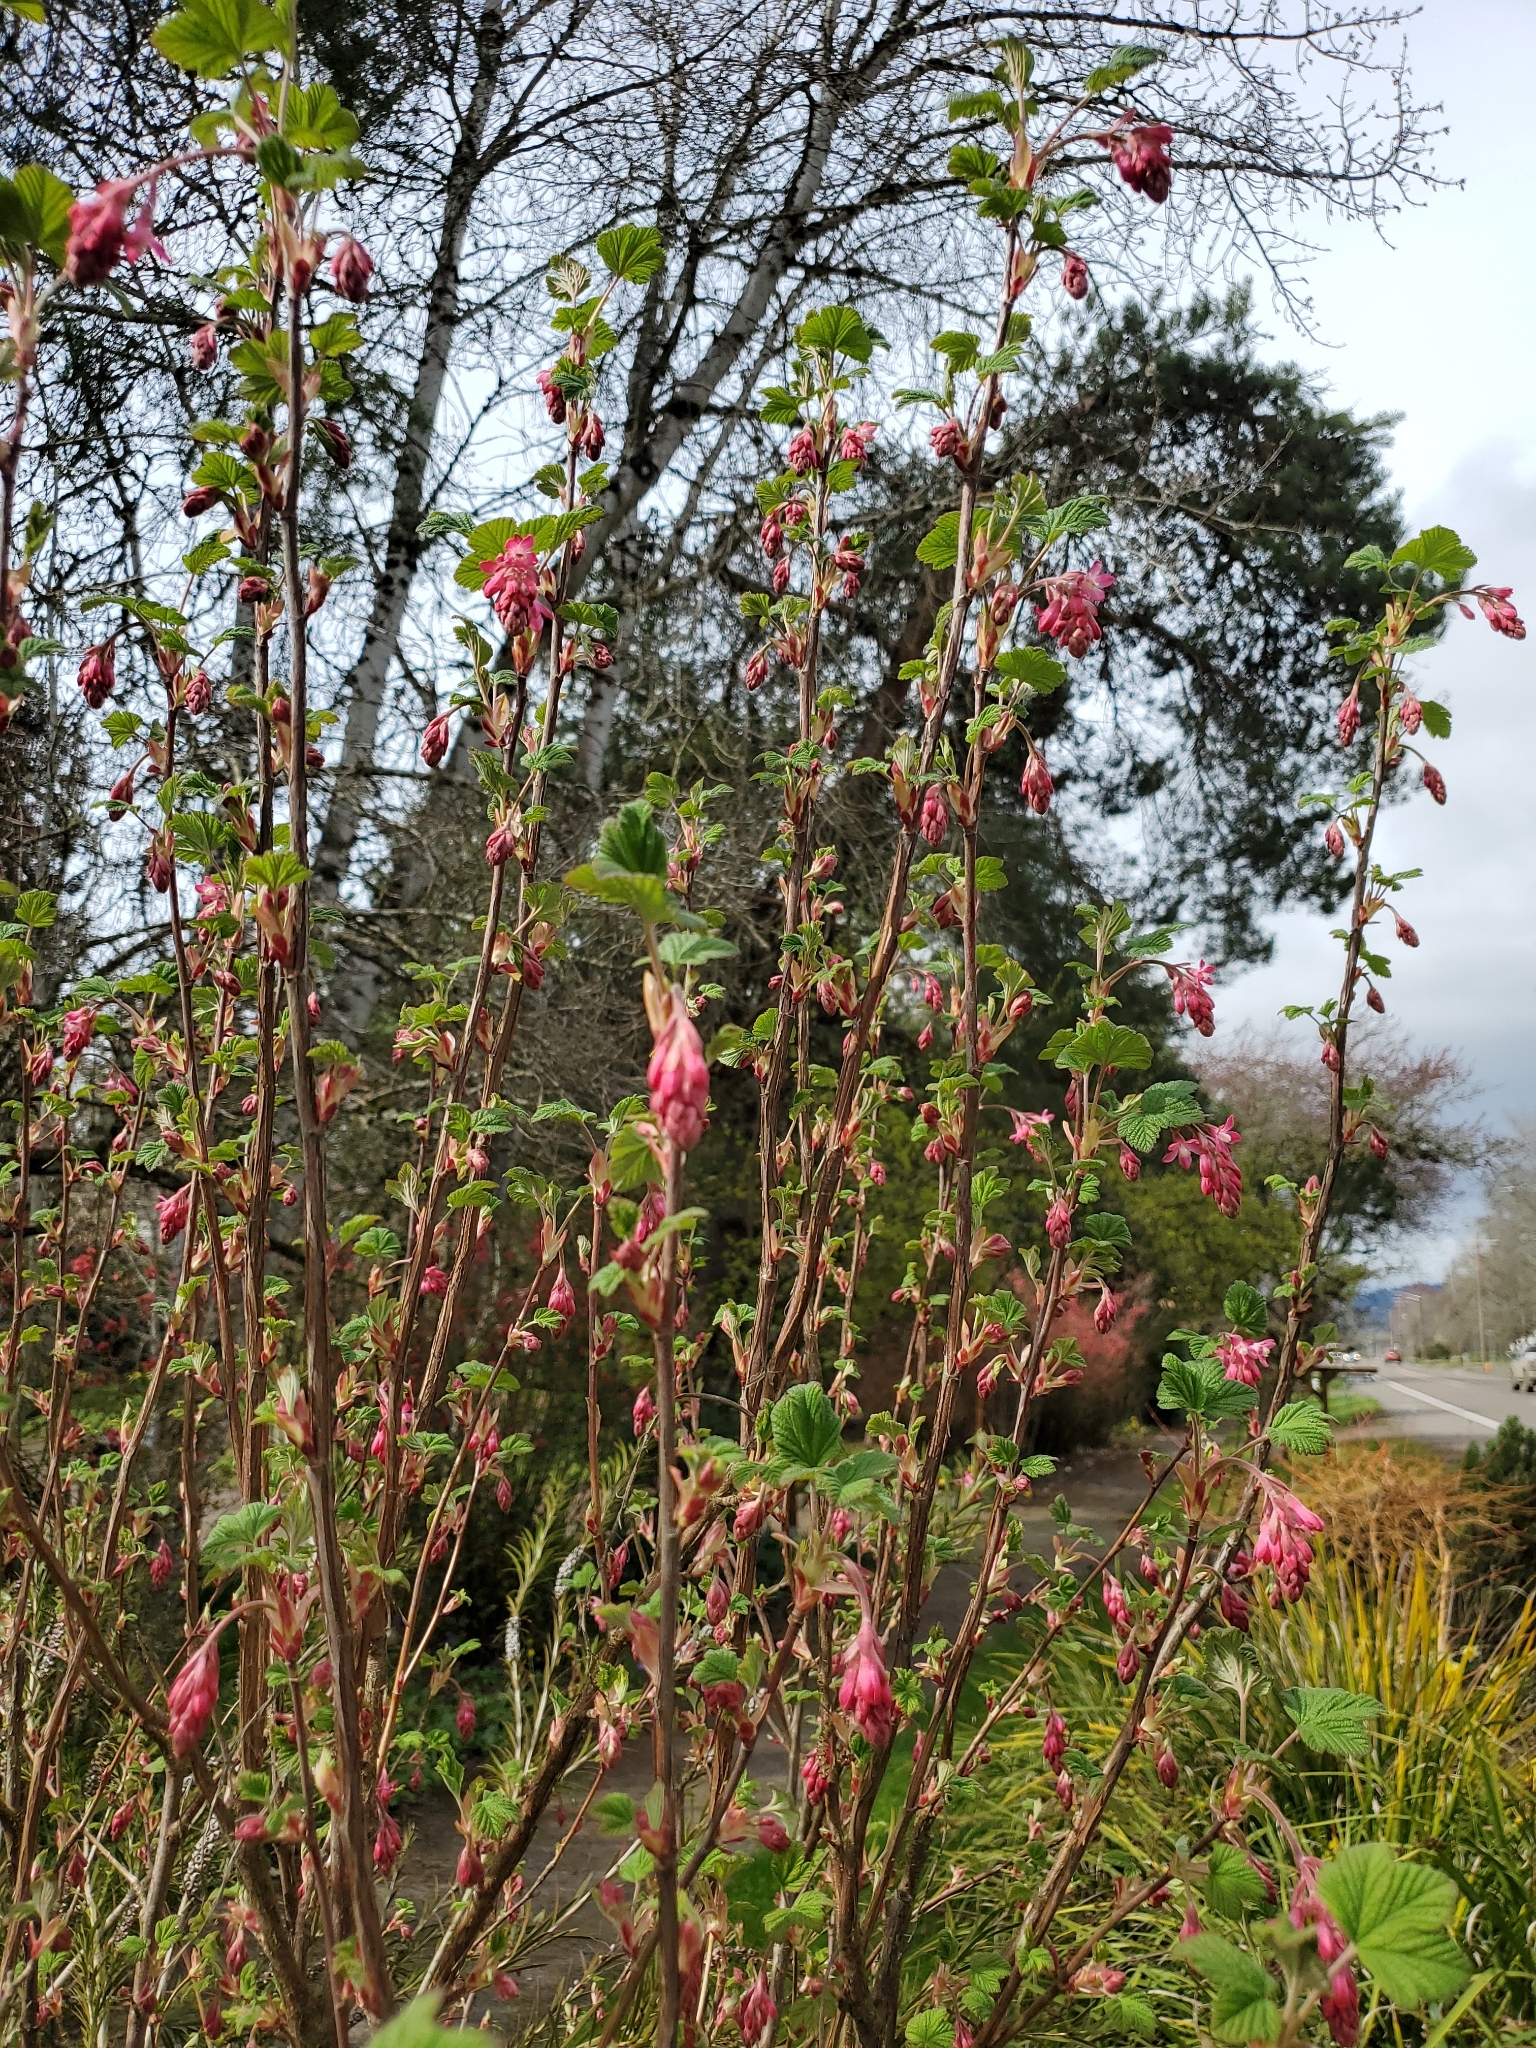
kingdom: Plantae
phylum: Tracheophyta
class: Magnoliopsida
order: Saxifragales
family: Grossulariaceae
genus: Ribes
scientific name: Ribes sanguineum
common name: Flowering currant
